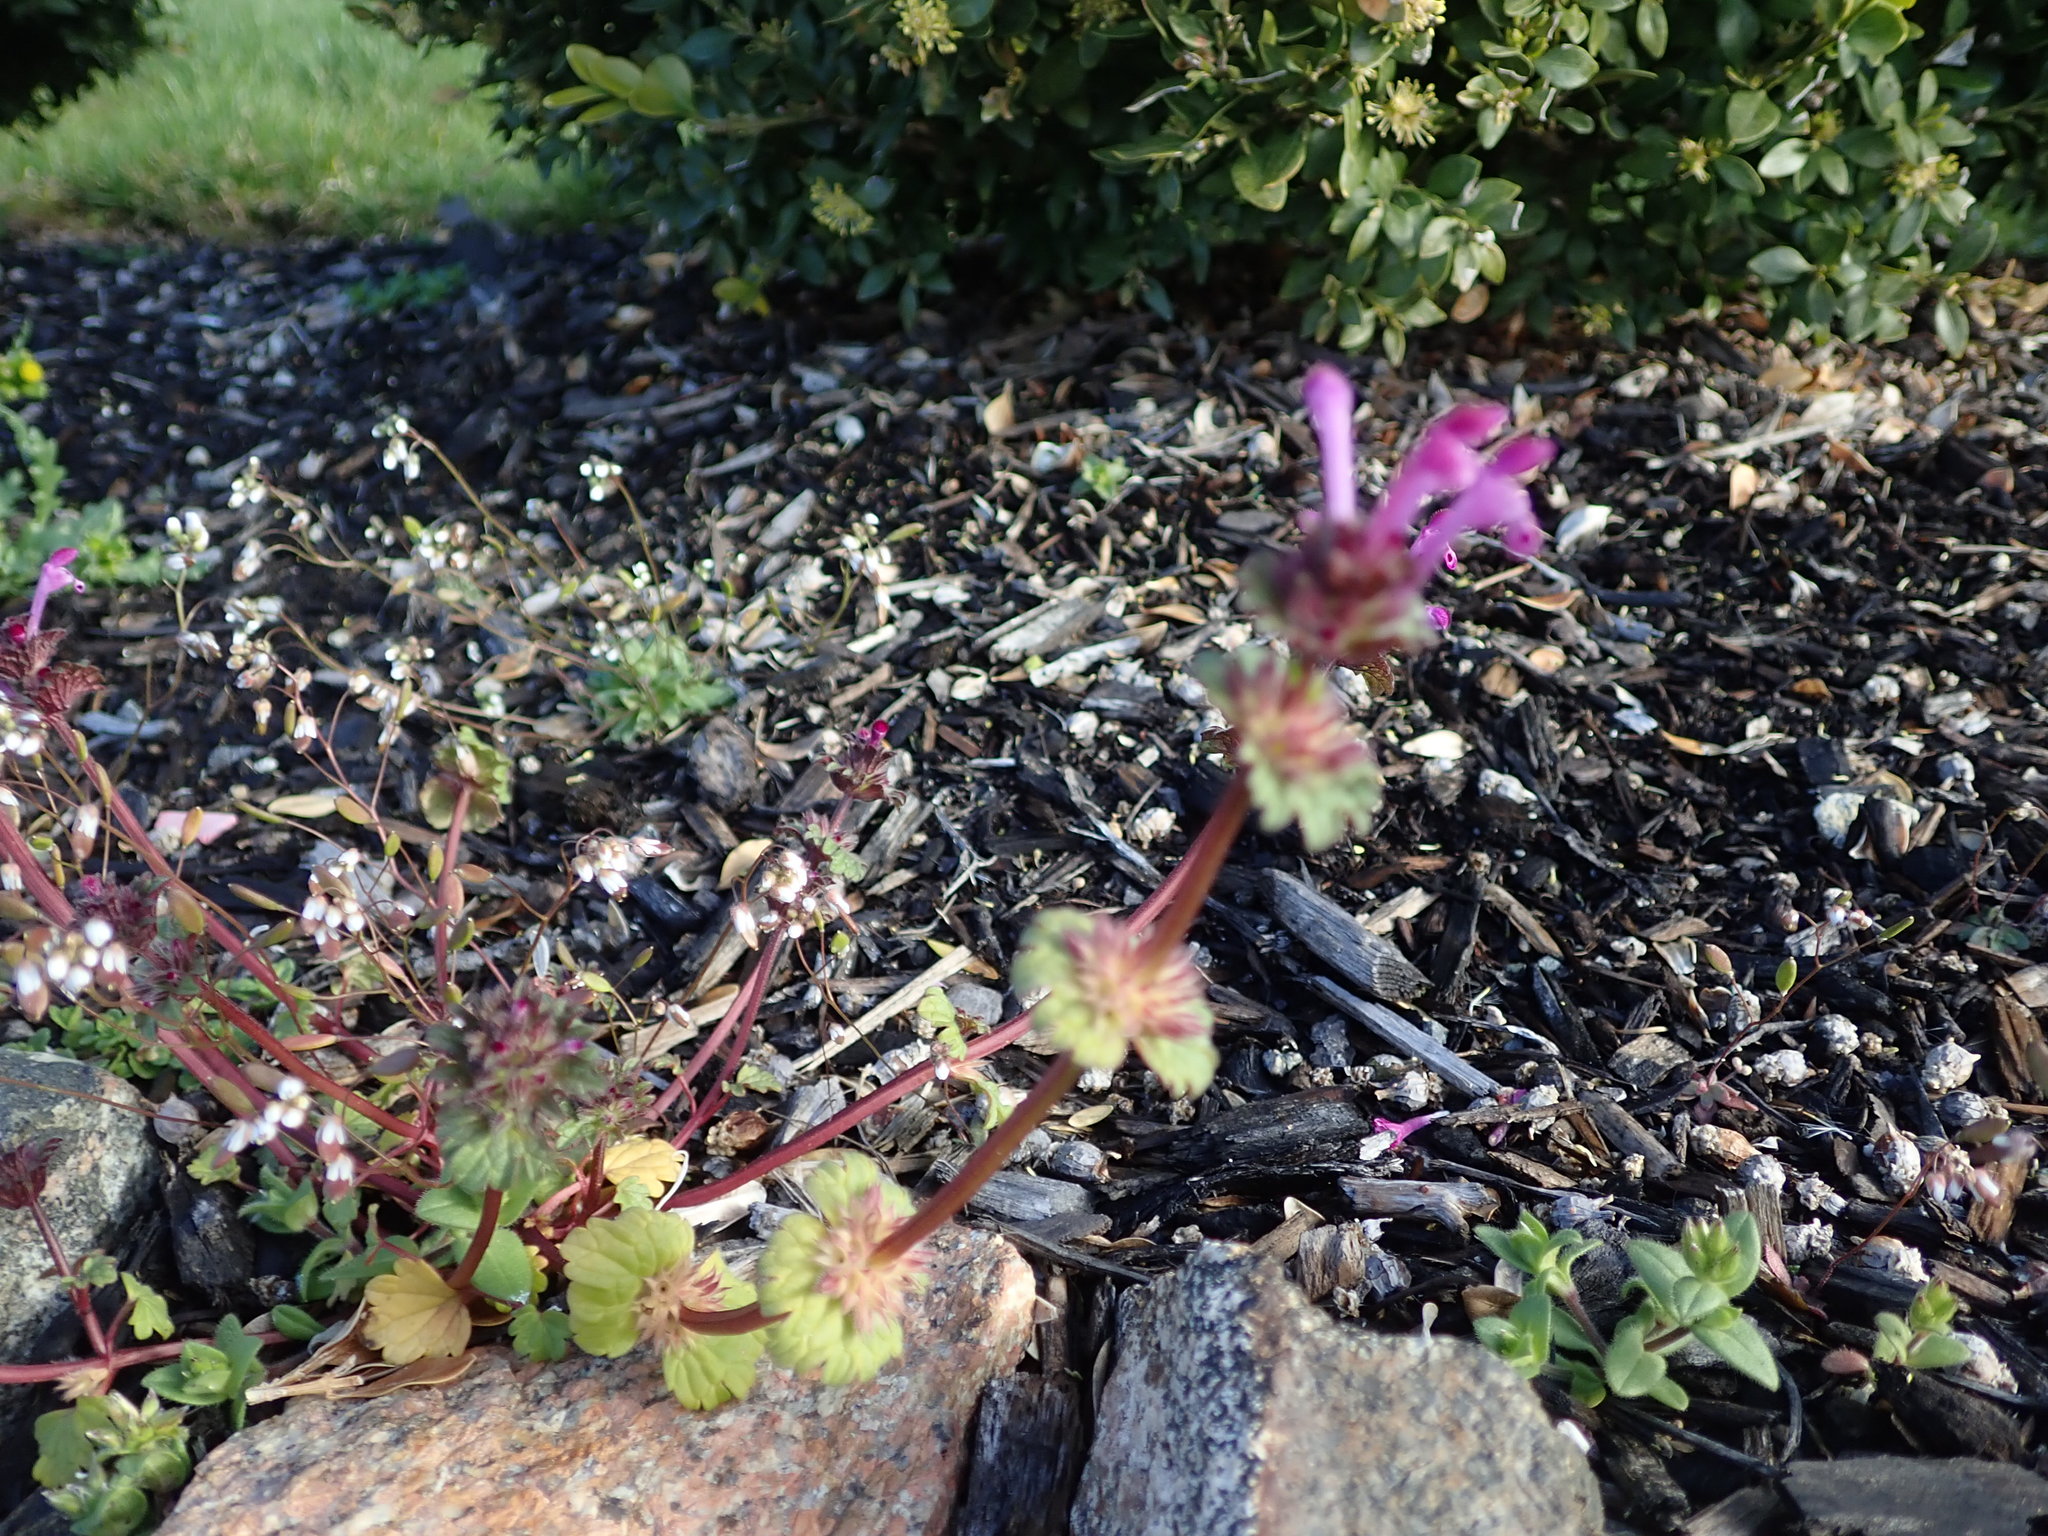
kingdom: Plantae
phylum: Tracheophyta
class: Magnoliopsida
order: Lamiales
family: Lamiaceae
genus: Lamium
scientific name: Lamium amplexicaule
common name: Henbit dead-nettle
